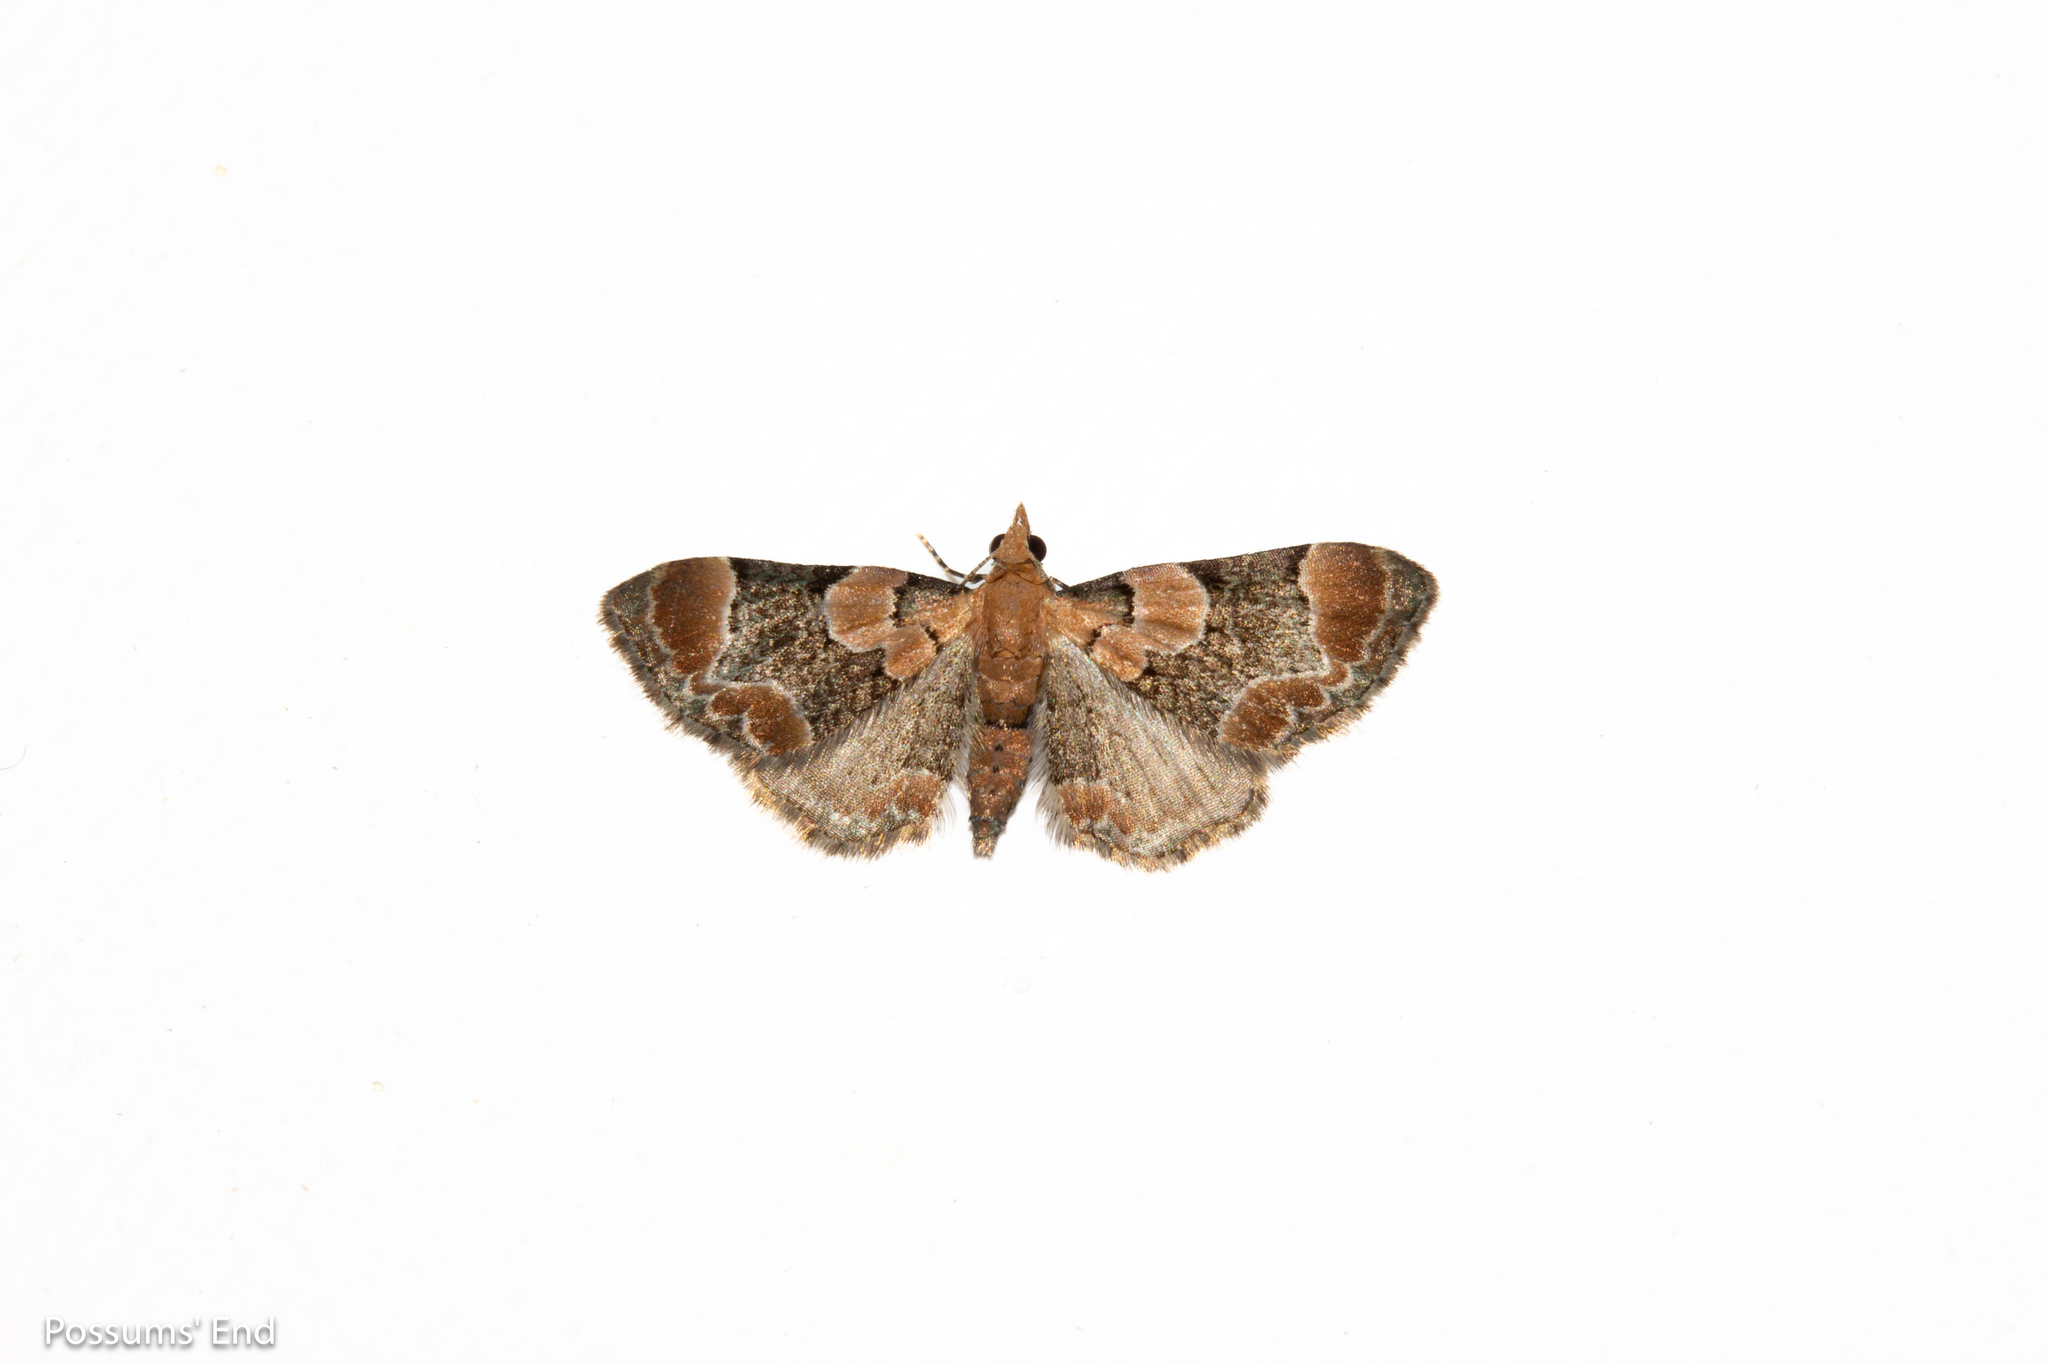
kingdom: Animalia
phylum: Arthropoda
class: Insecta
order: Lepidoptera
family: Geometridae
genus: Chloroclystis
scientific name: Chloroclystis
